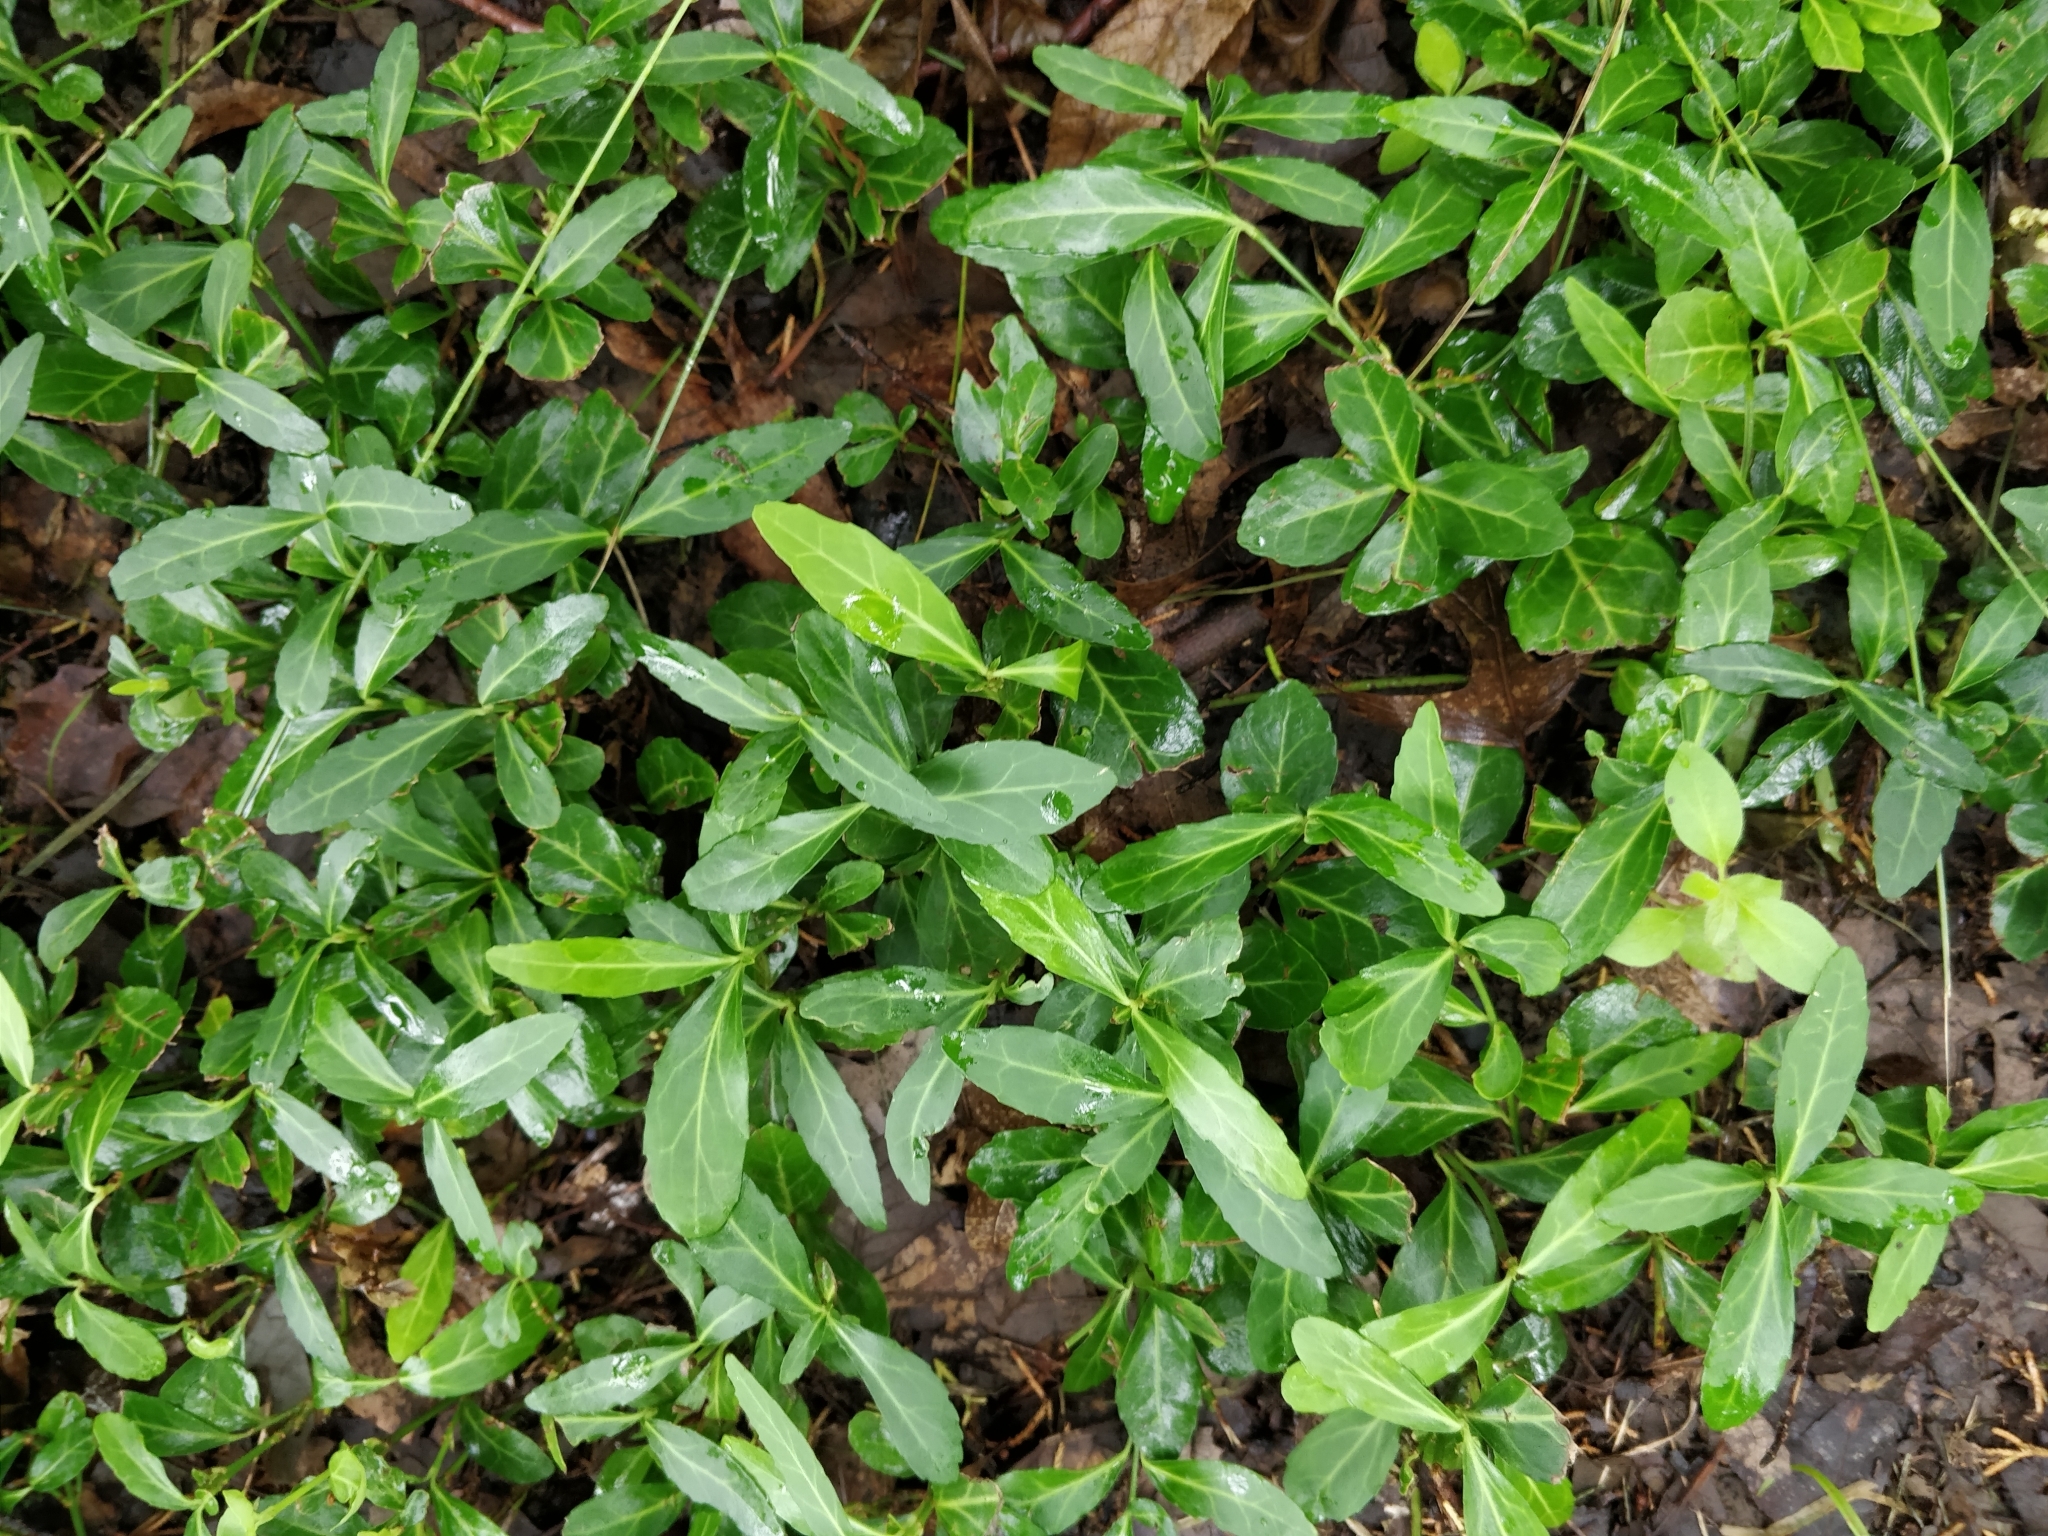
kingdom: Plantae
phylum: Tracheophyta
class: Magnoliopsida
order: Celastrales
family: Celastraceae
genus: Euonymus
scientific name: Euonymus fortunei
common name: Climbing euonymus
